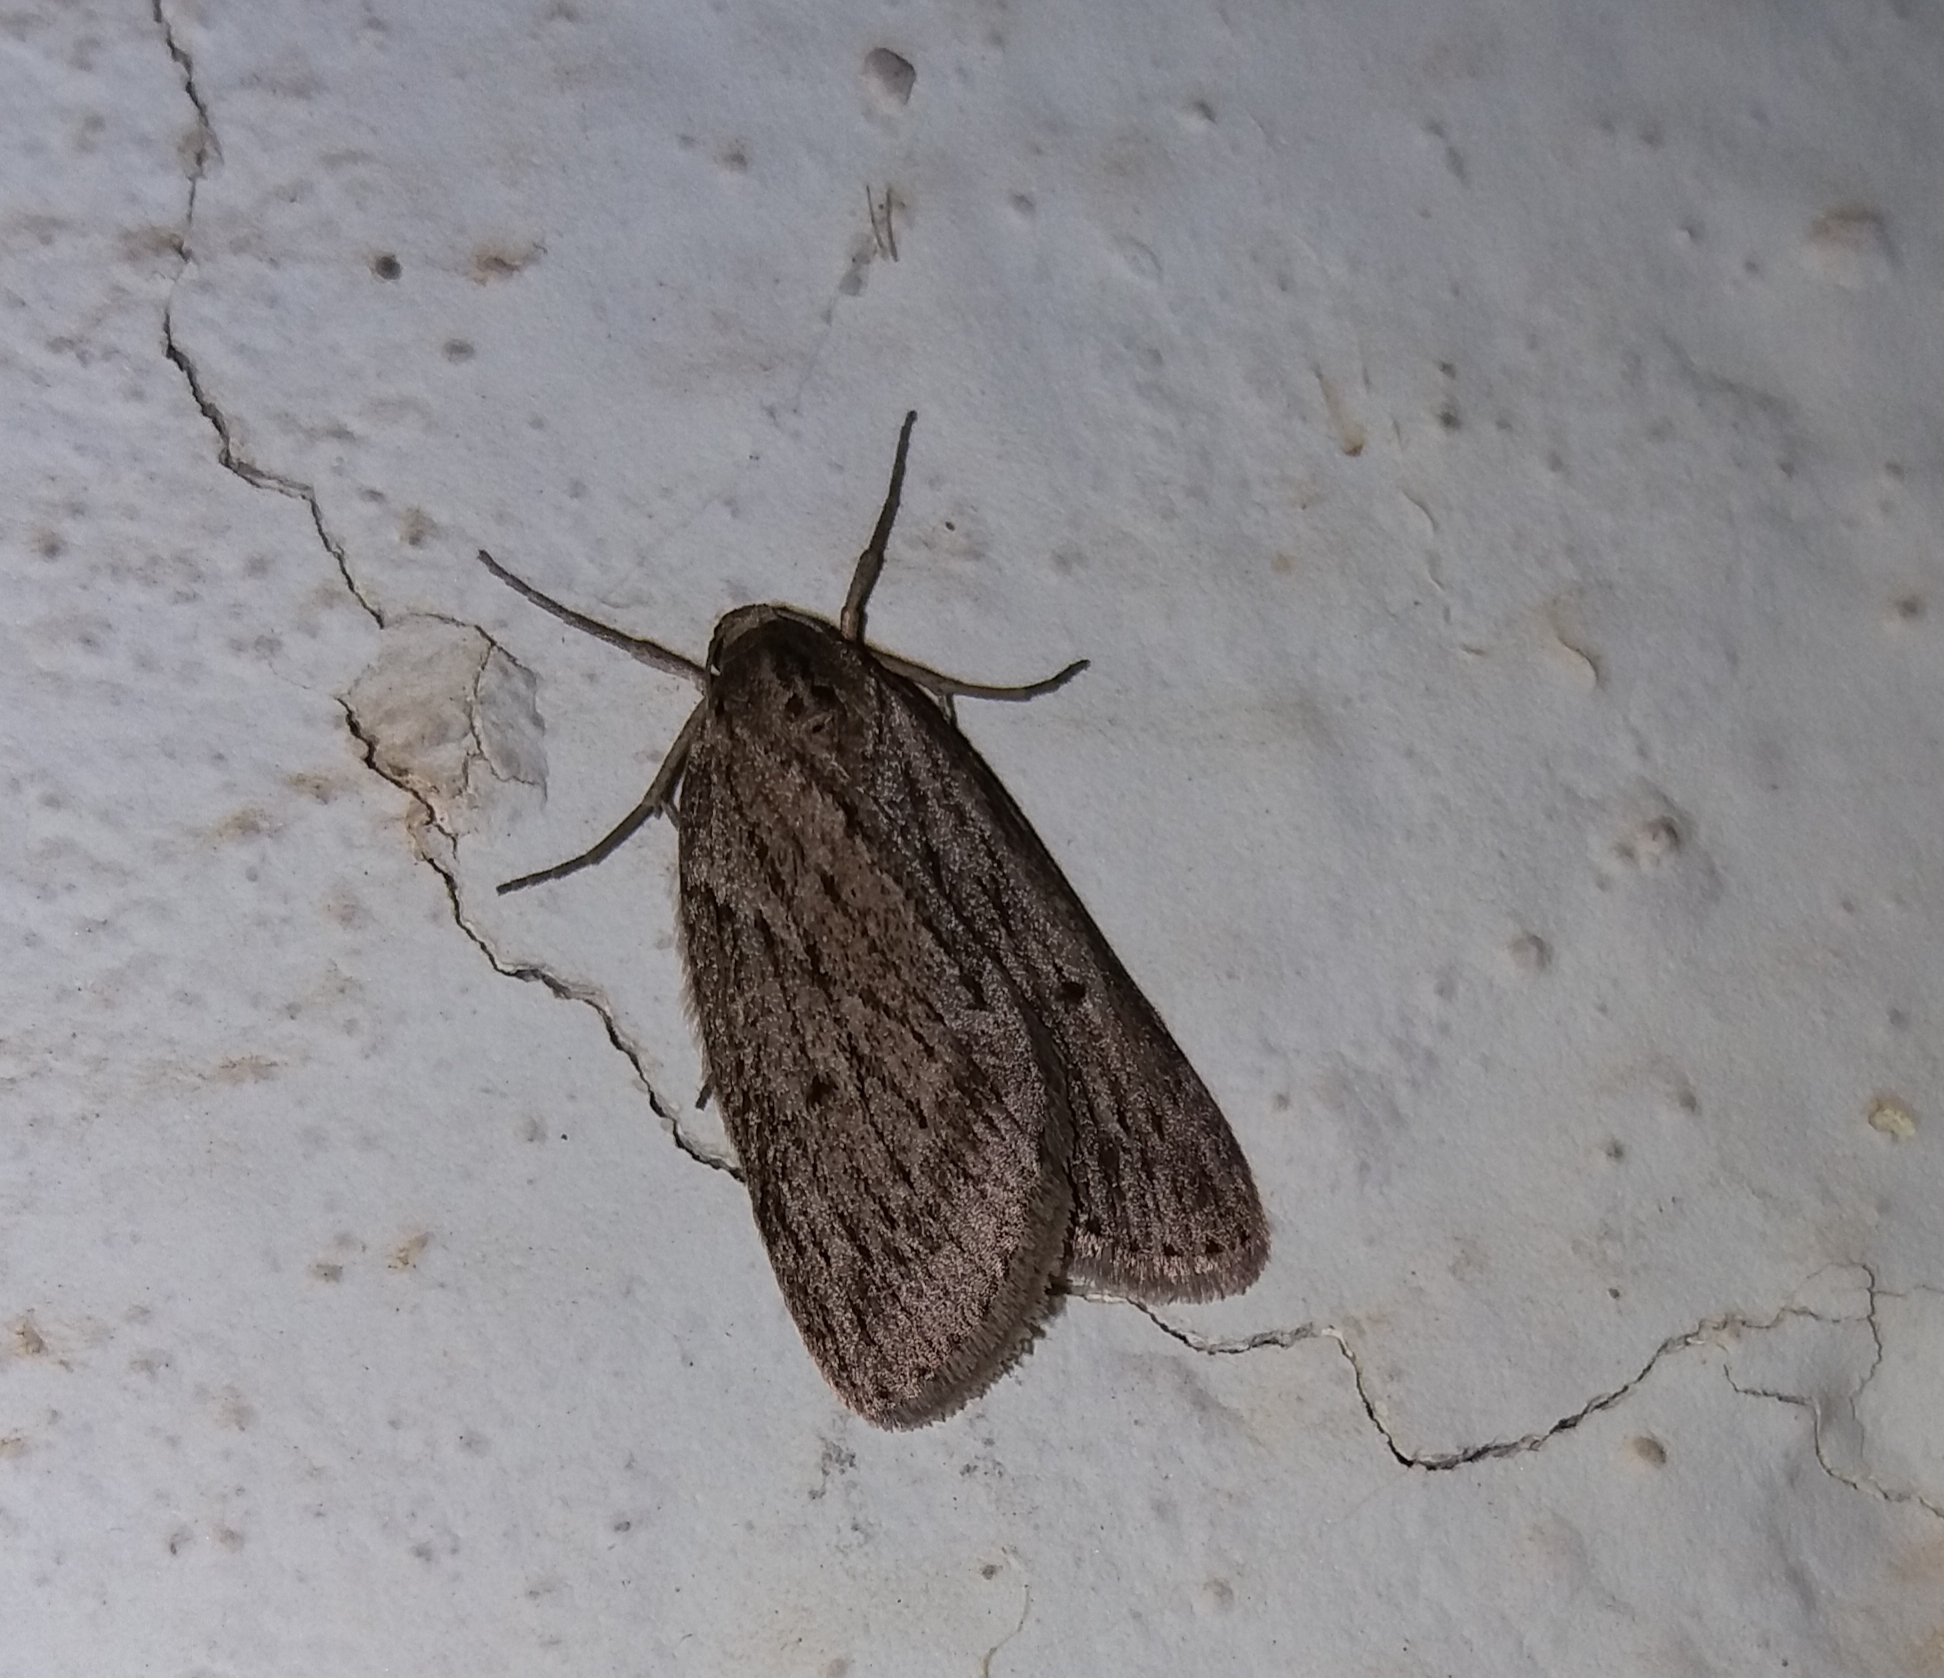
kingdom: Animalia
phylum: Arthropoda
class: Insecta
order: Lepidoptera
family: Geometridae
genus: Pachycnemia
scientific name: Pachycnemia hippocastanaria
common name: Horse chestnut
